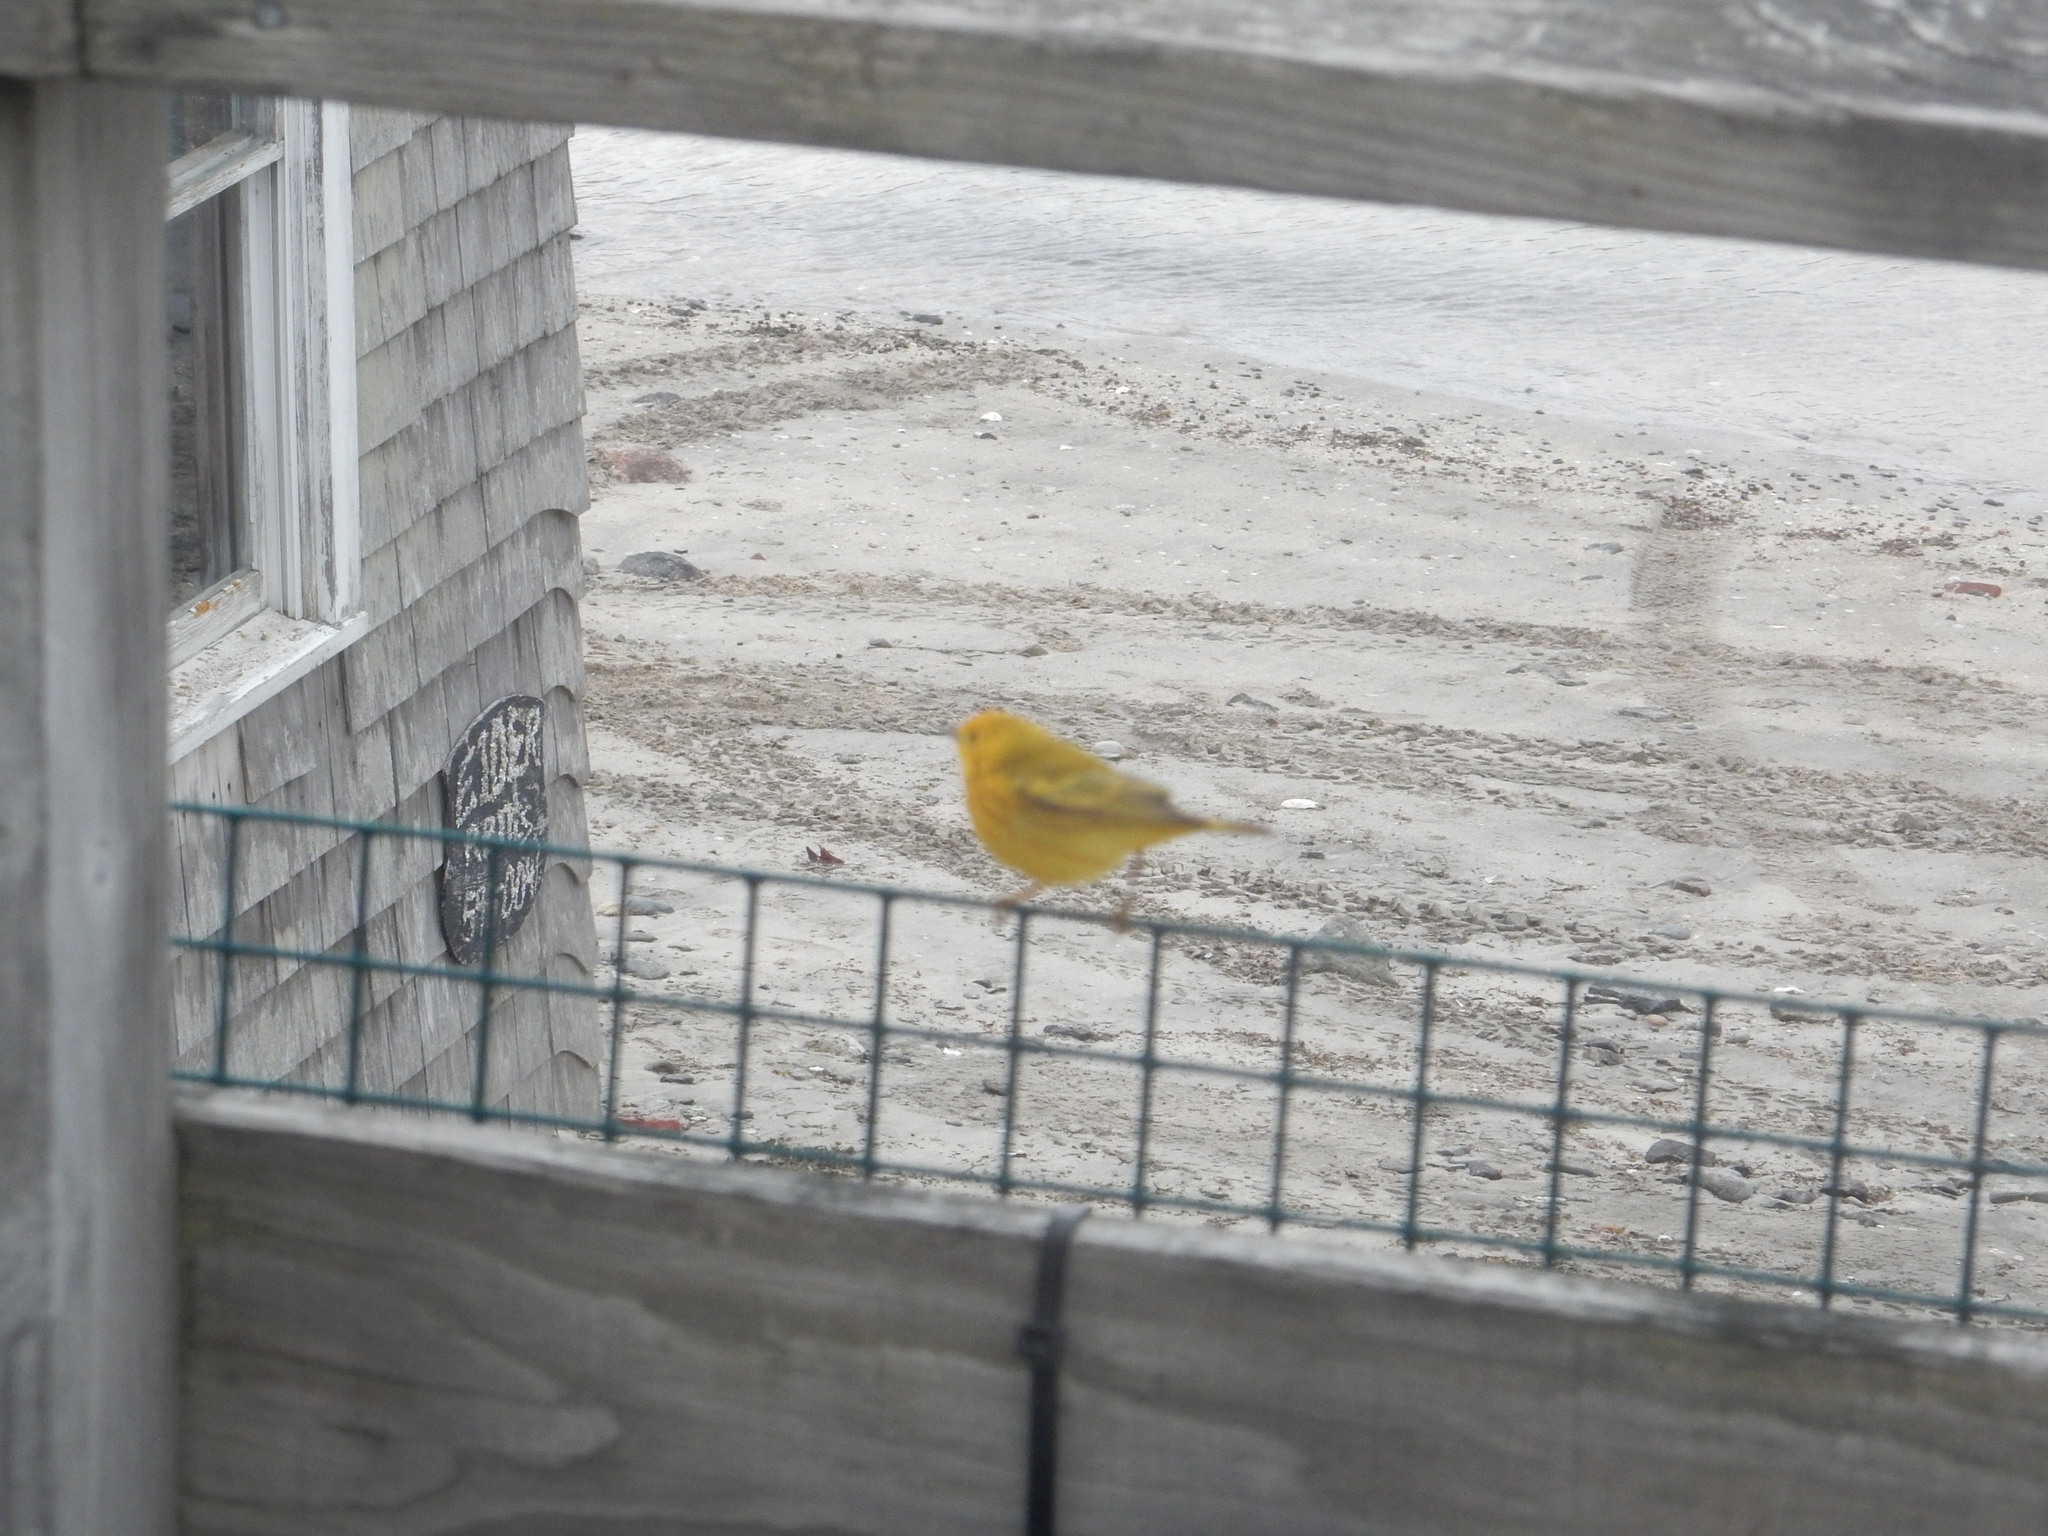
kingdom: Animalia
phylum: Chordata
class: Aves
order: Passeriformes
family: Parulidae
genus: Setophaga
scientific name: Setophaga petechia
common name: Yellow warbler
